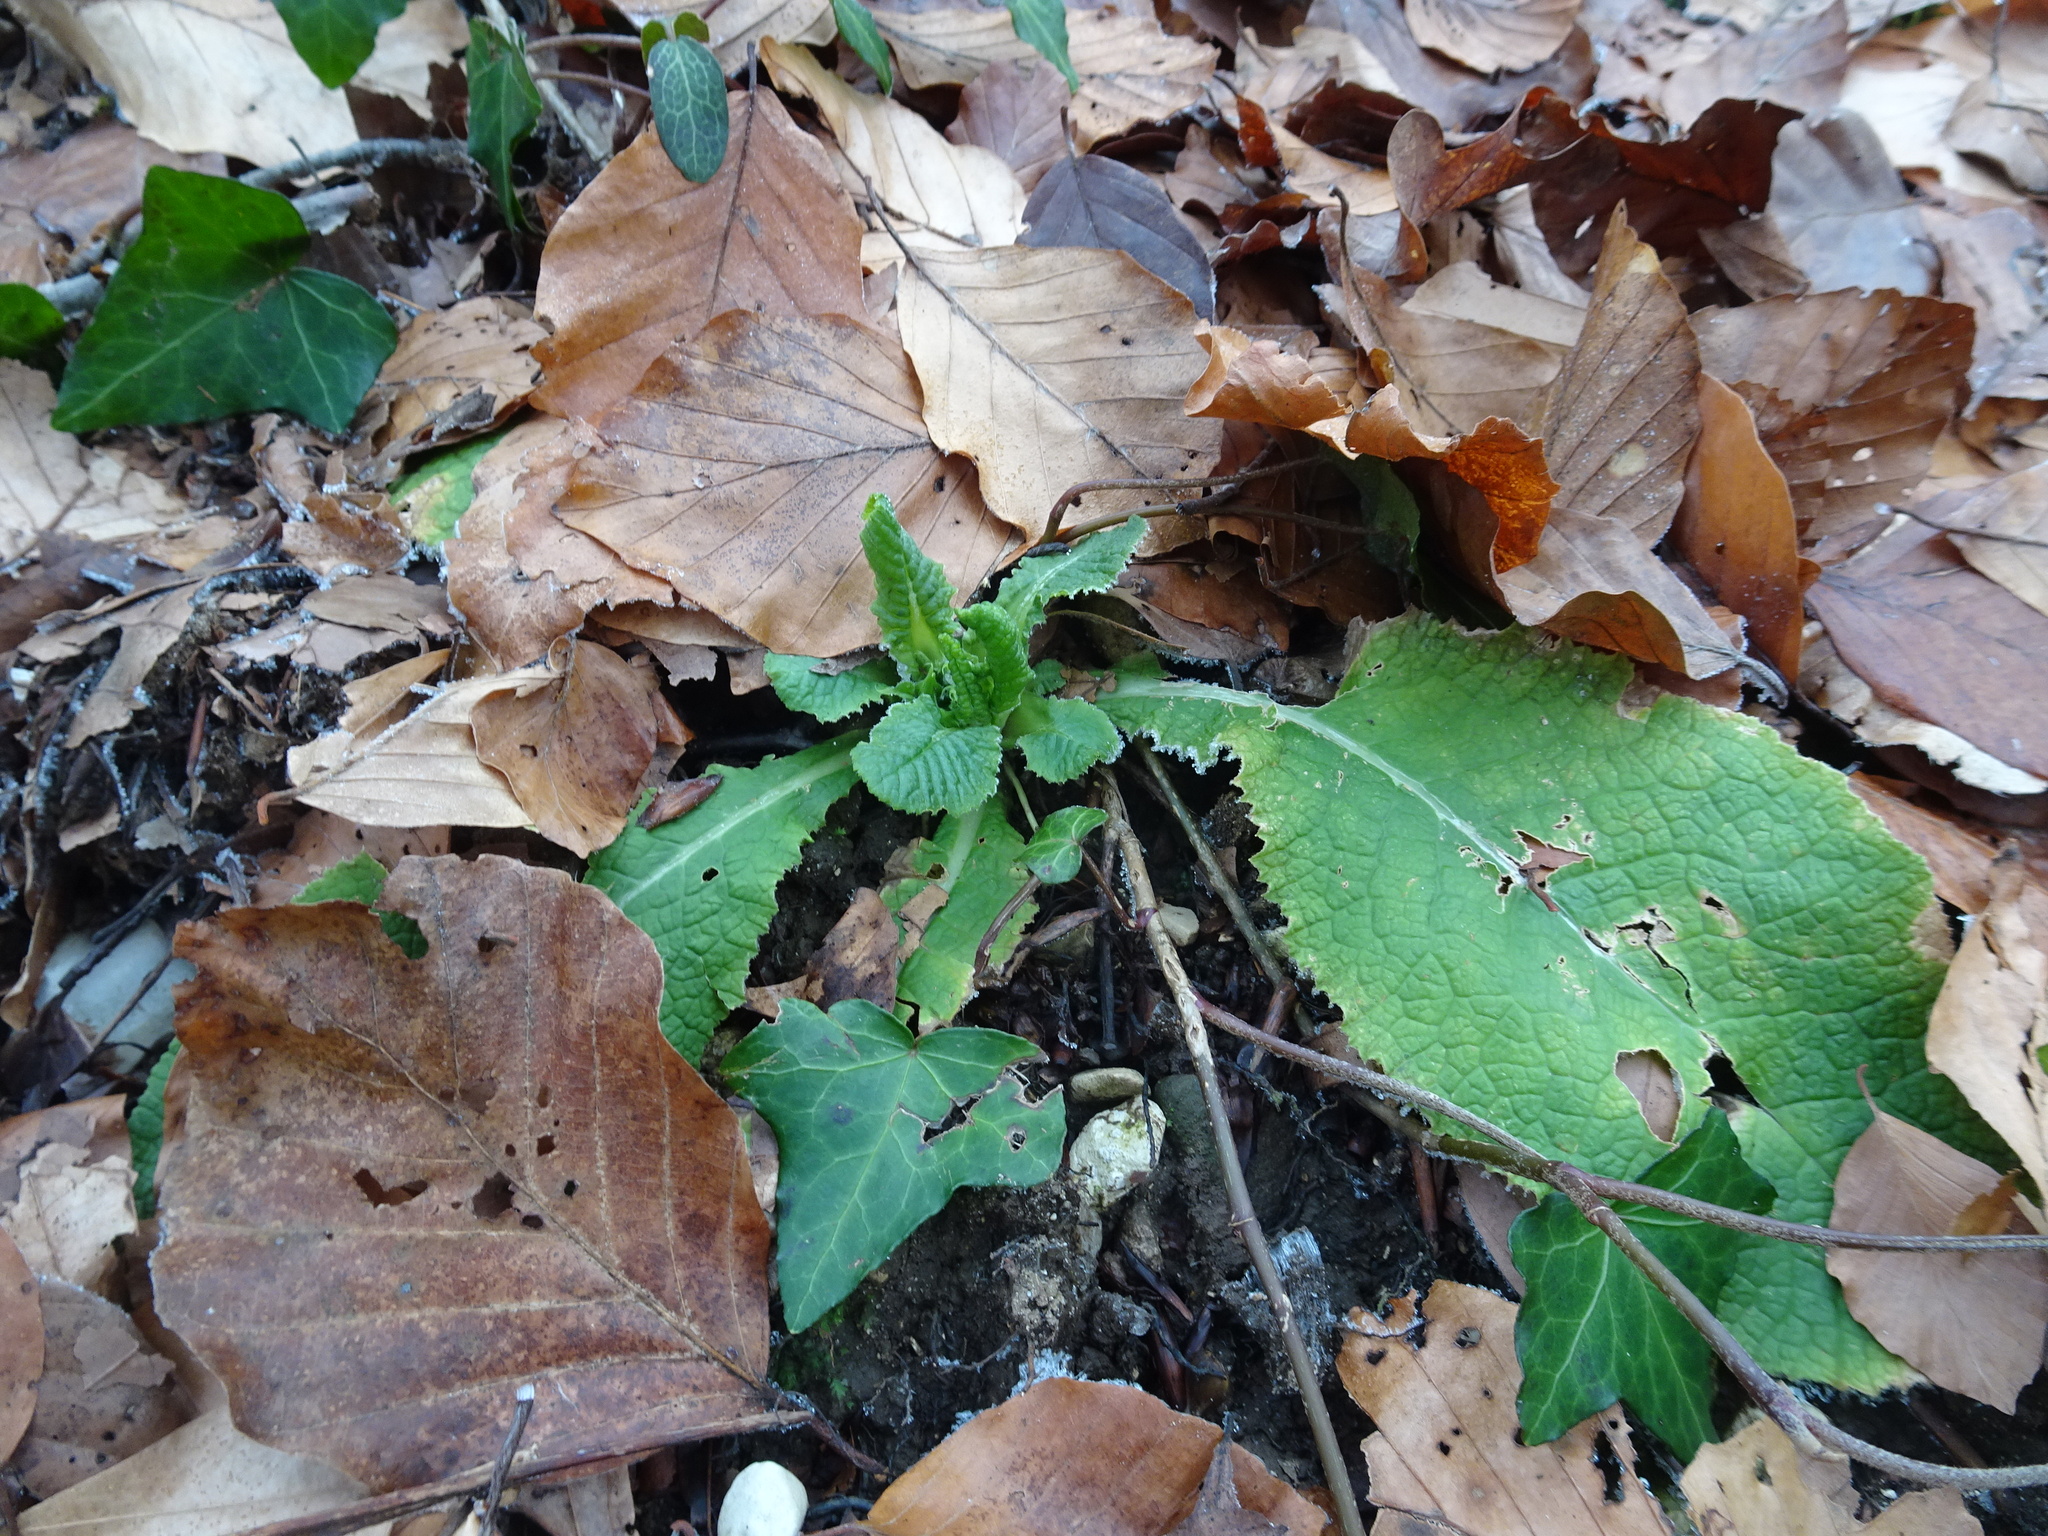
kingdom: Plantae
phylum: Tracheophyta
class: Magnoliopsida
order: Ericales
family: Primulaceae
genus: Primula
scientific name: Primula vulgaris
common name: Primrose
